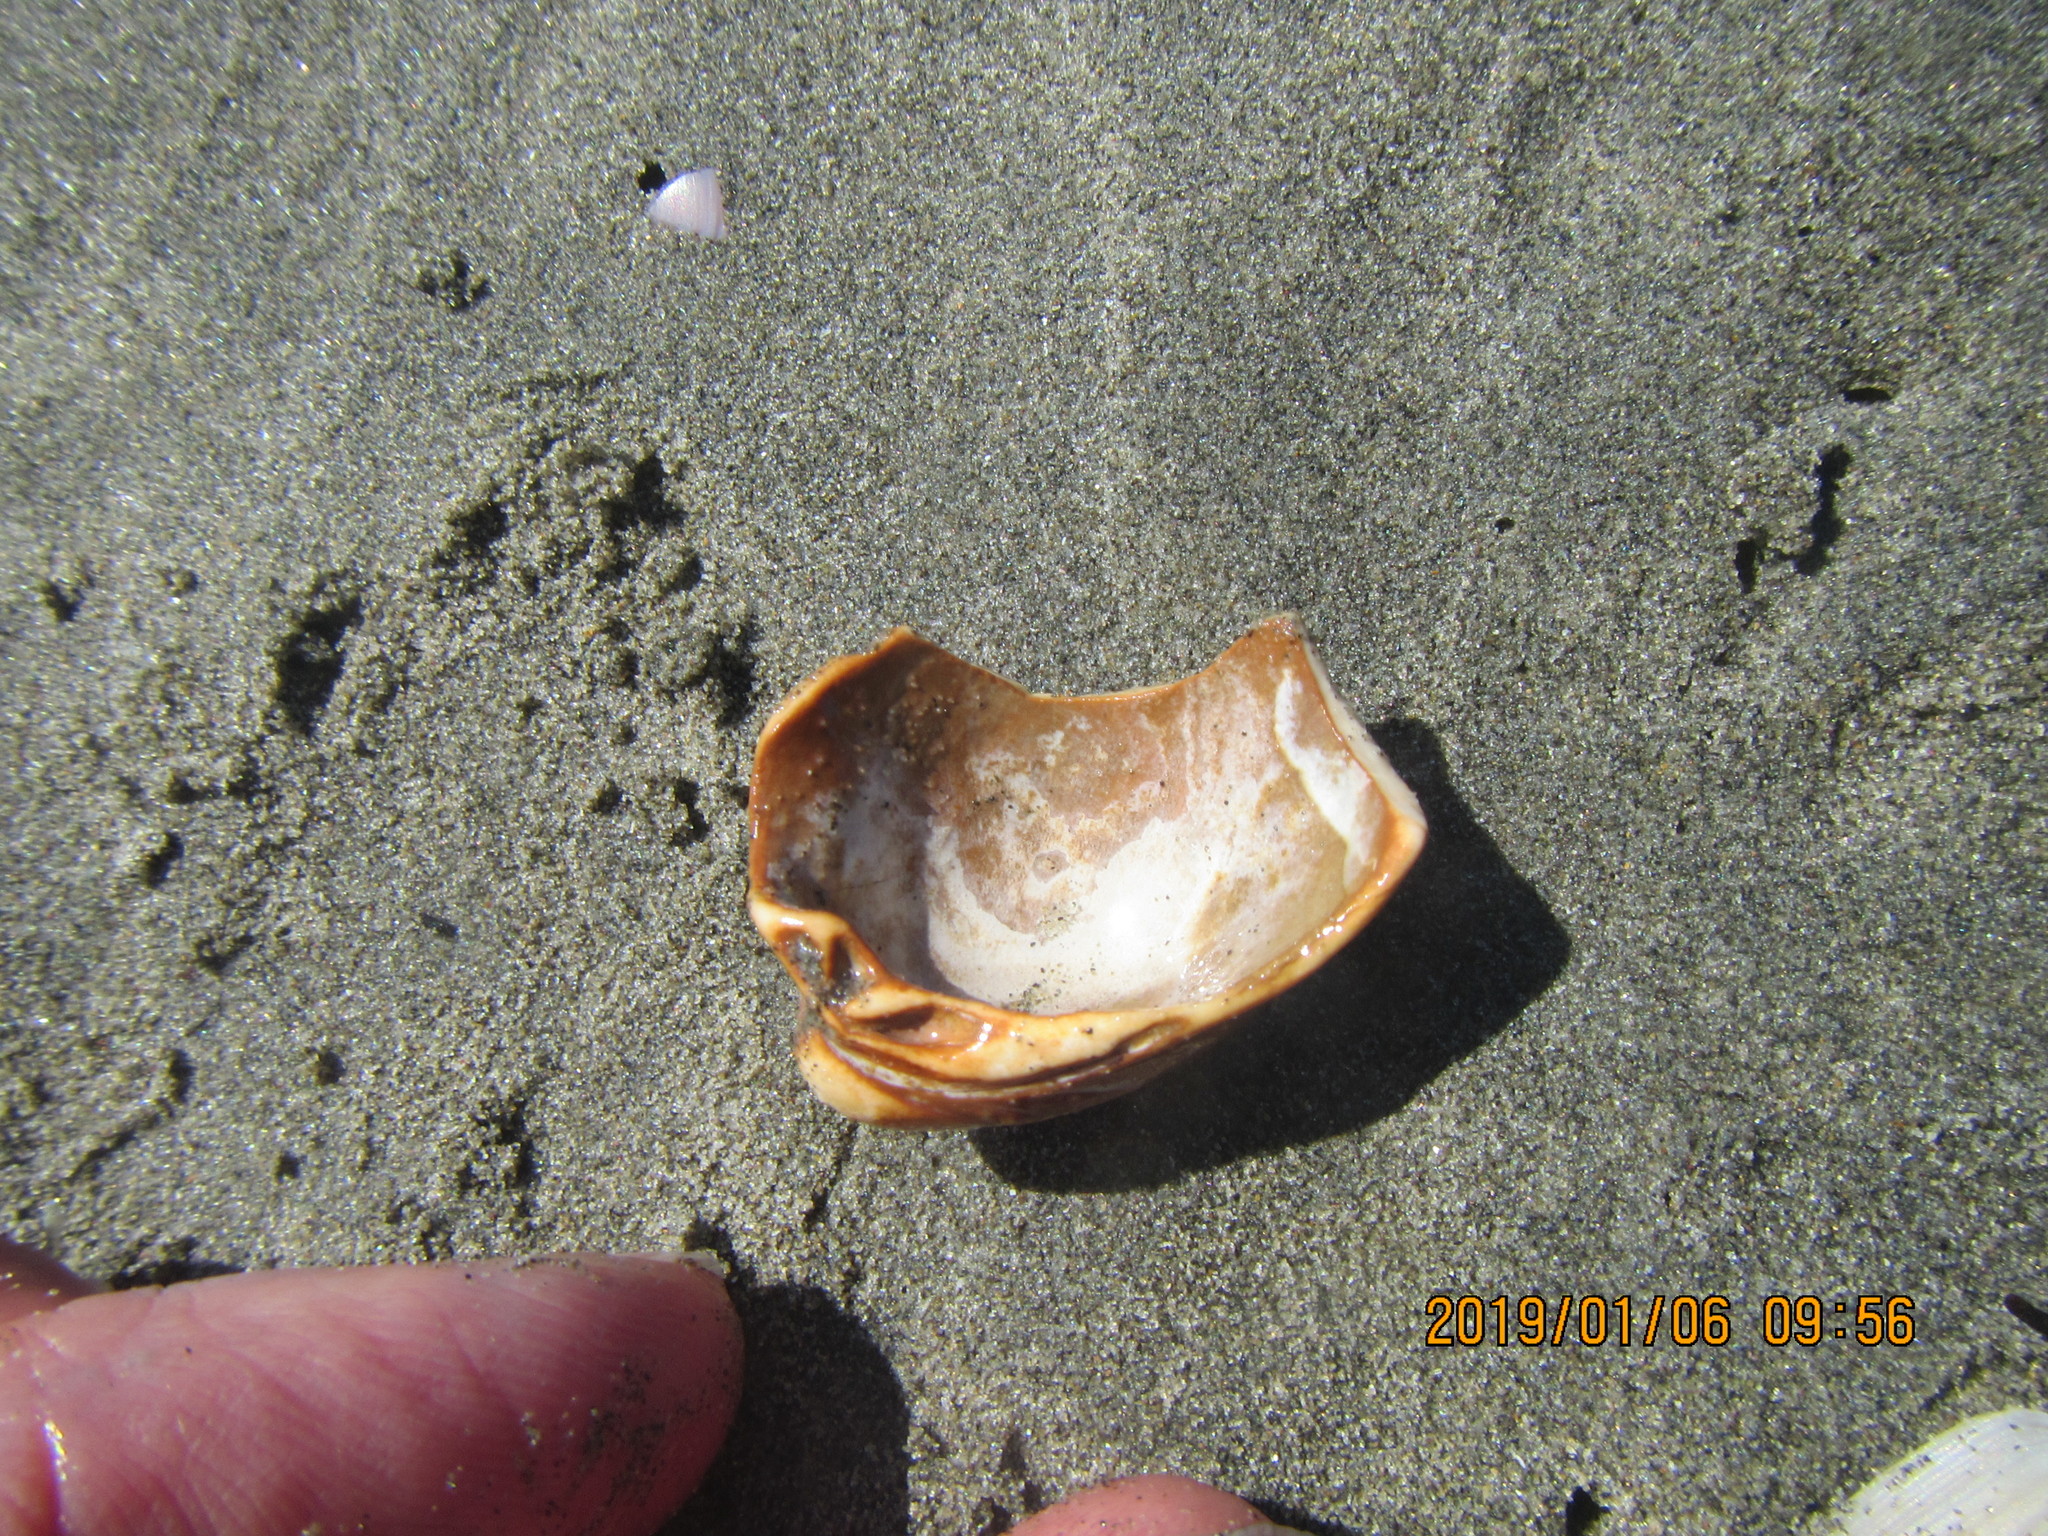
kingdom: Animalia
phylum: Mollusca
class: Bivalvia
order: Venerida
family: Veneridae
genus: Austrovenus
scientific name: Austrovenus stutchburyi
